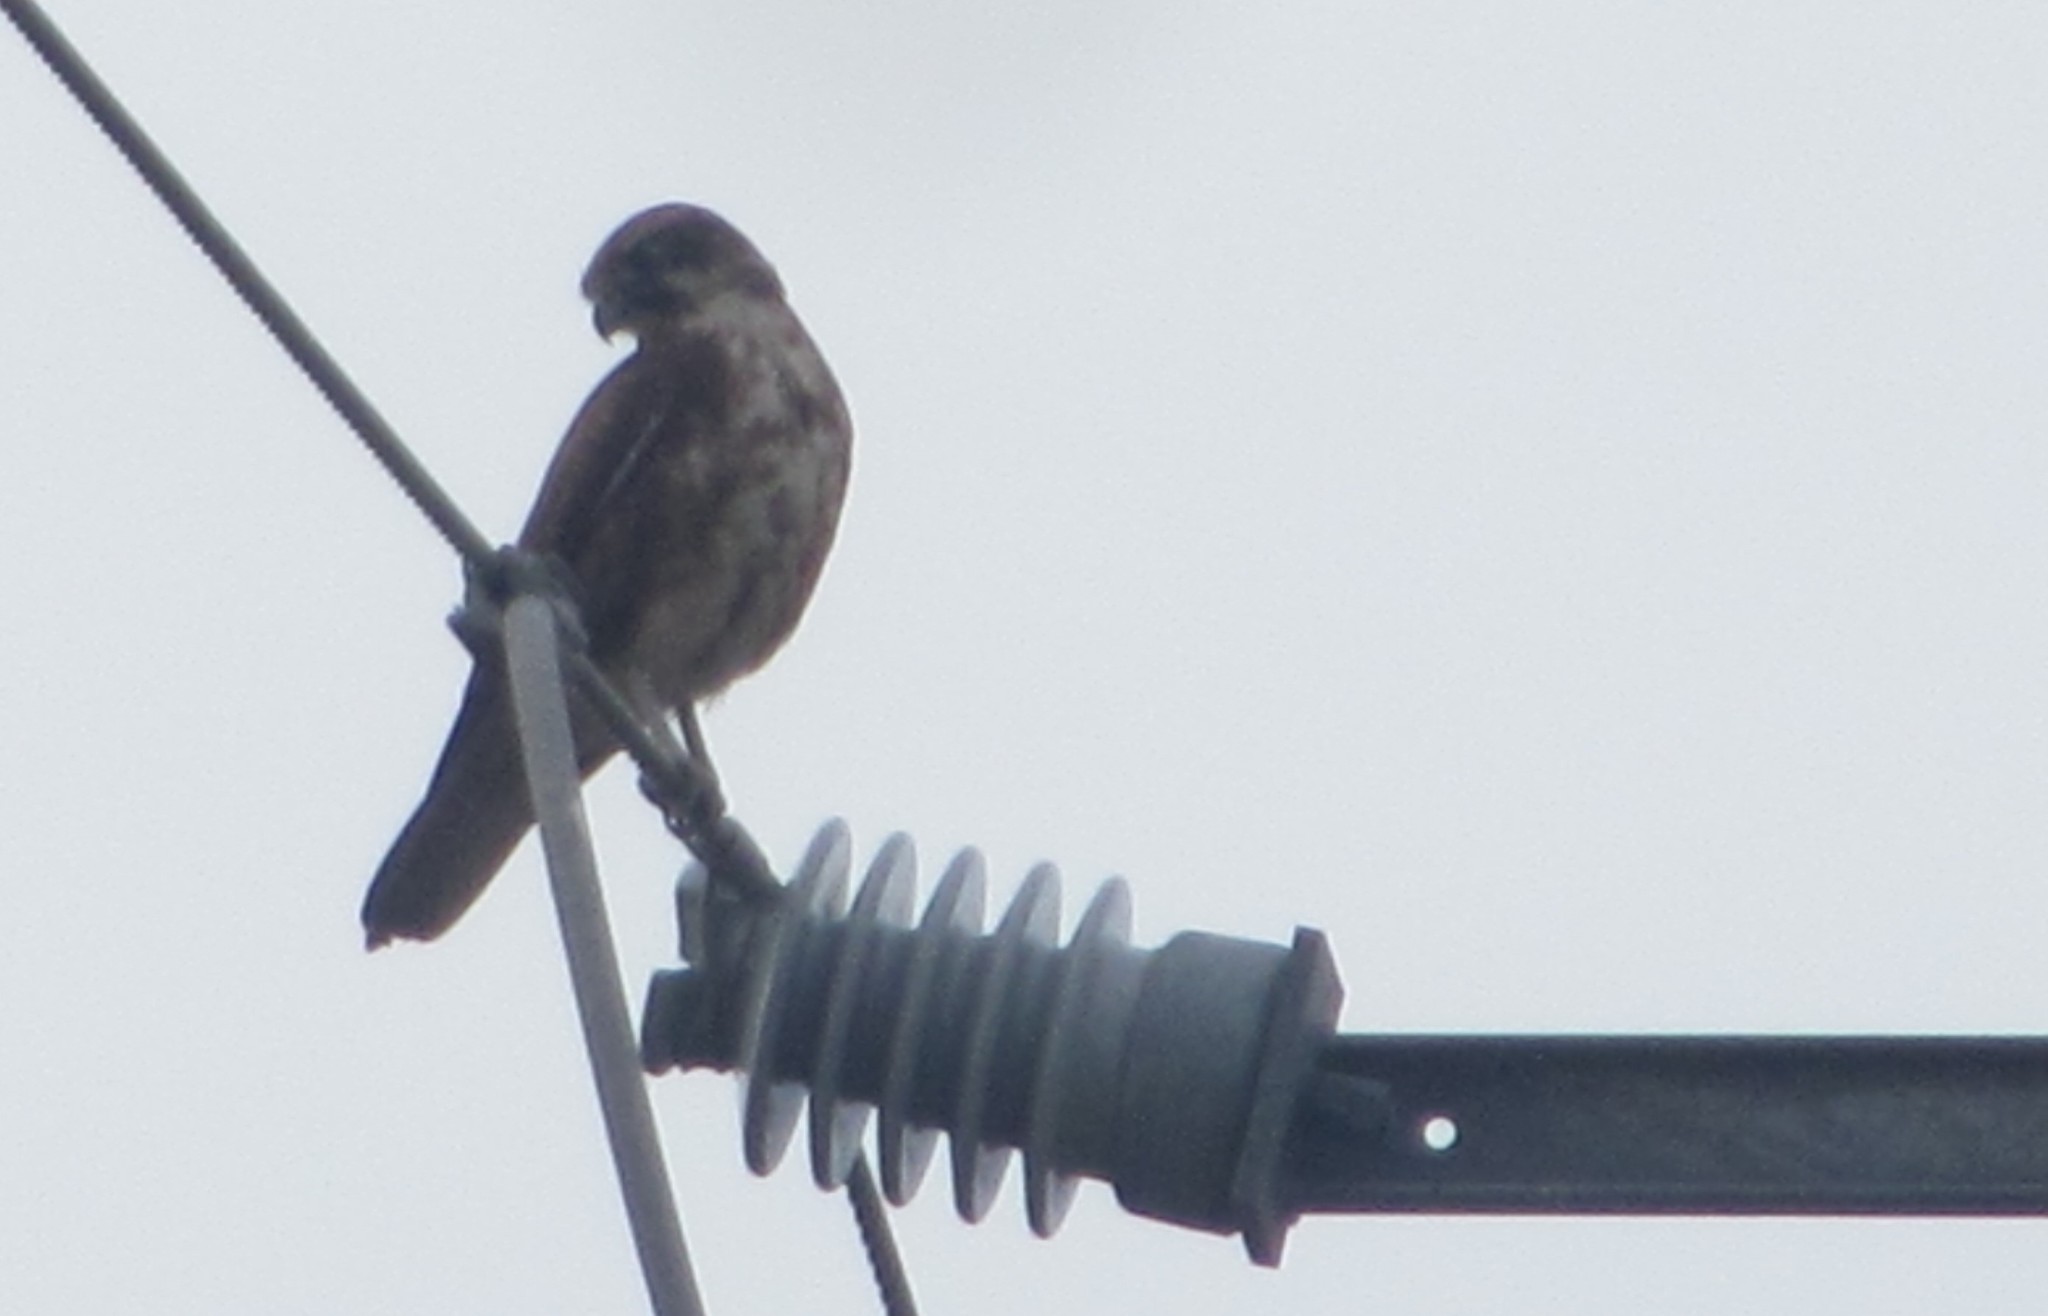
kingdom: Animalia
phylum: Chordata
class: Aves
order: Falconiformes
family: Falconidae
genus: Falco
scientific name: Falco berigora
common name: Brown falcon
